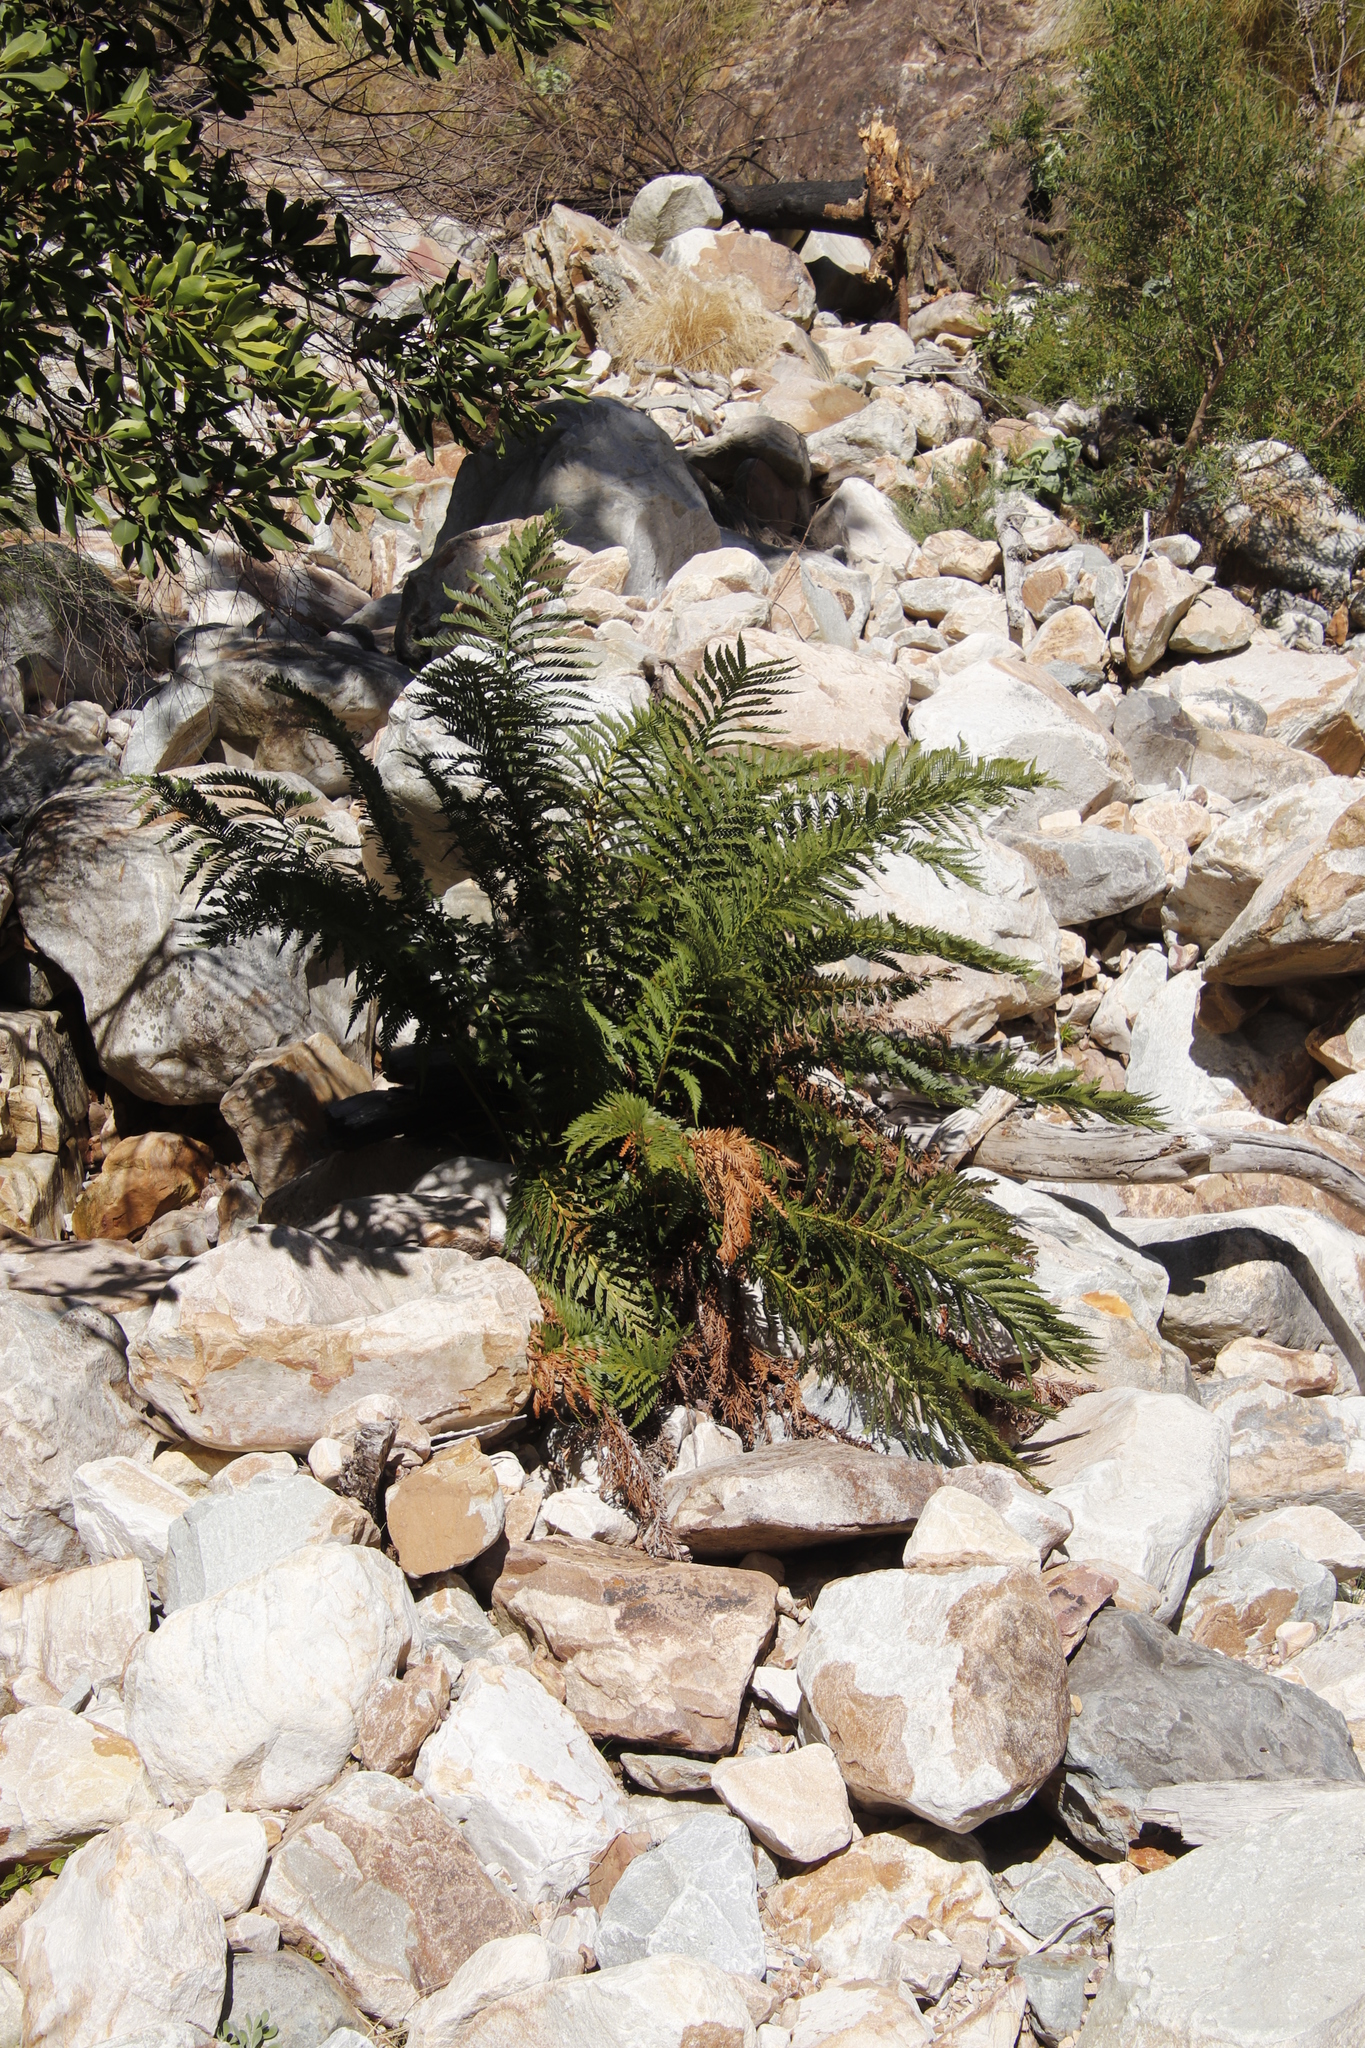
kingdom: Plantae
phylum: Tracheophyta
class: Polypodiopsida
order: Osmundales
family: Osmundaceae
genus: Todea
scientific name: Todea barbara
